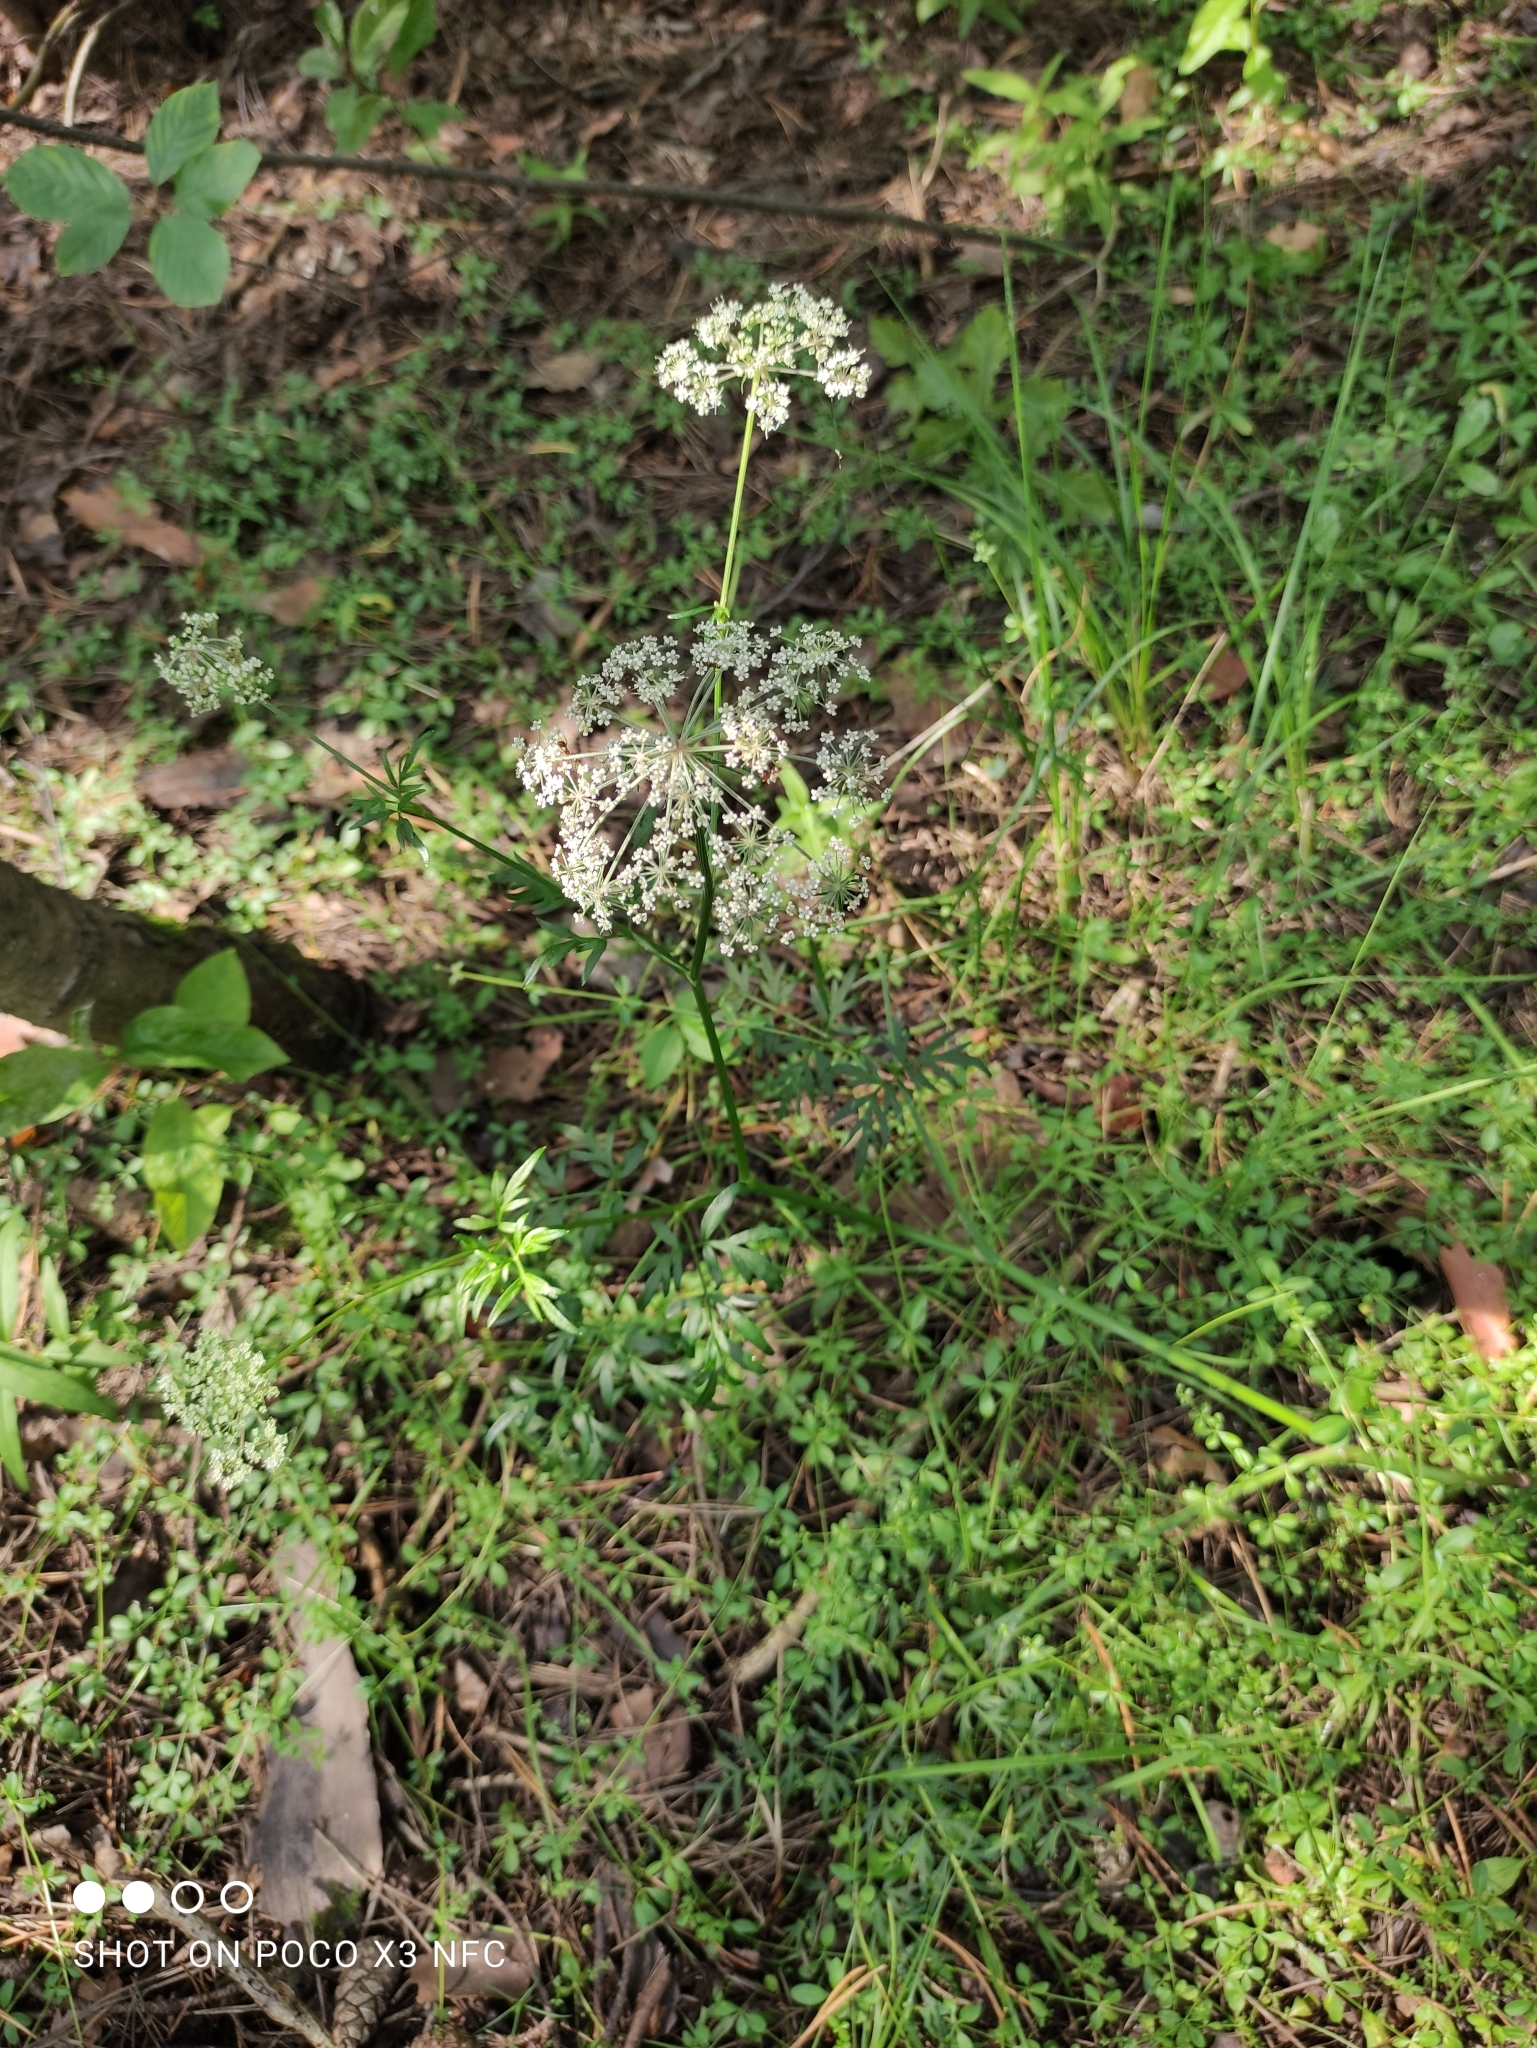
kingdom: Plantae
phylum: Tracheophyta
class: Magnoliopsida
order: Apiales
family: Apiaceae
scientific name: Apiaceae
